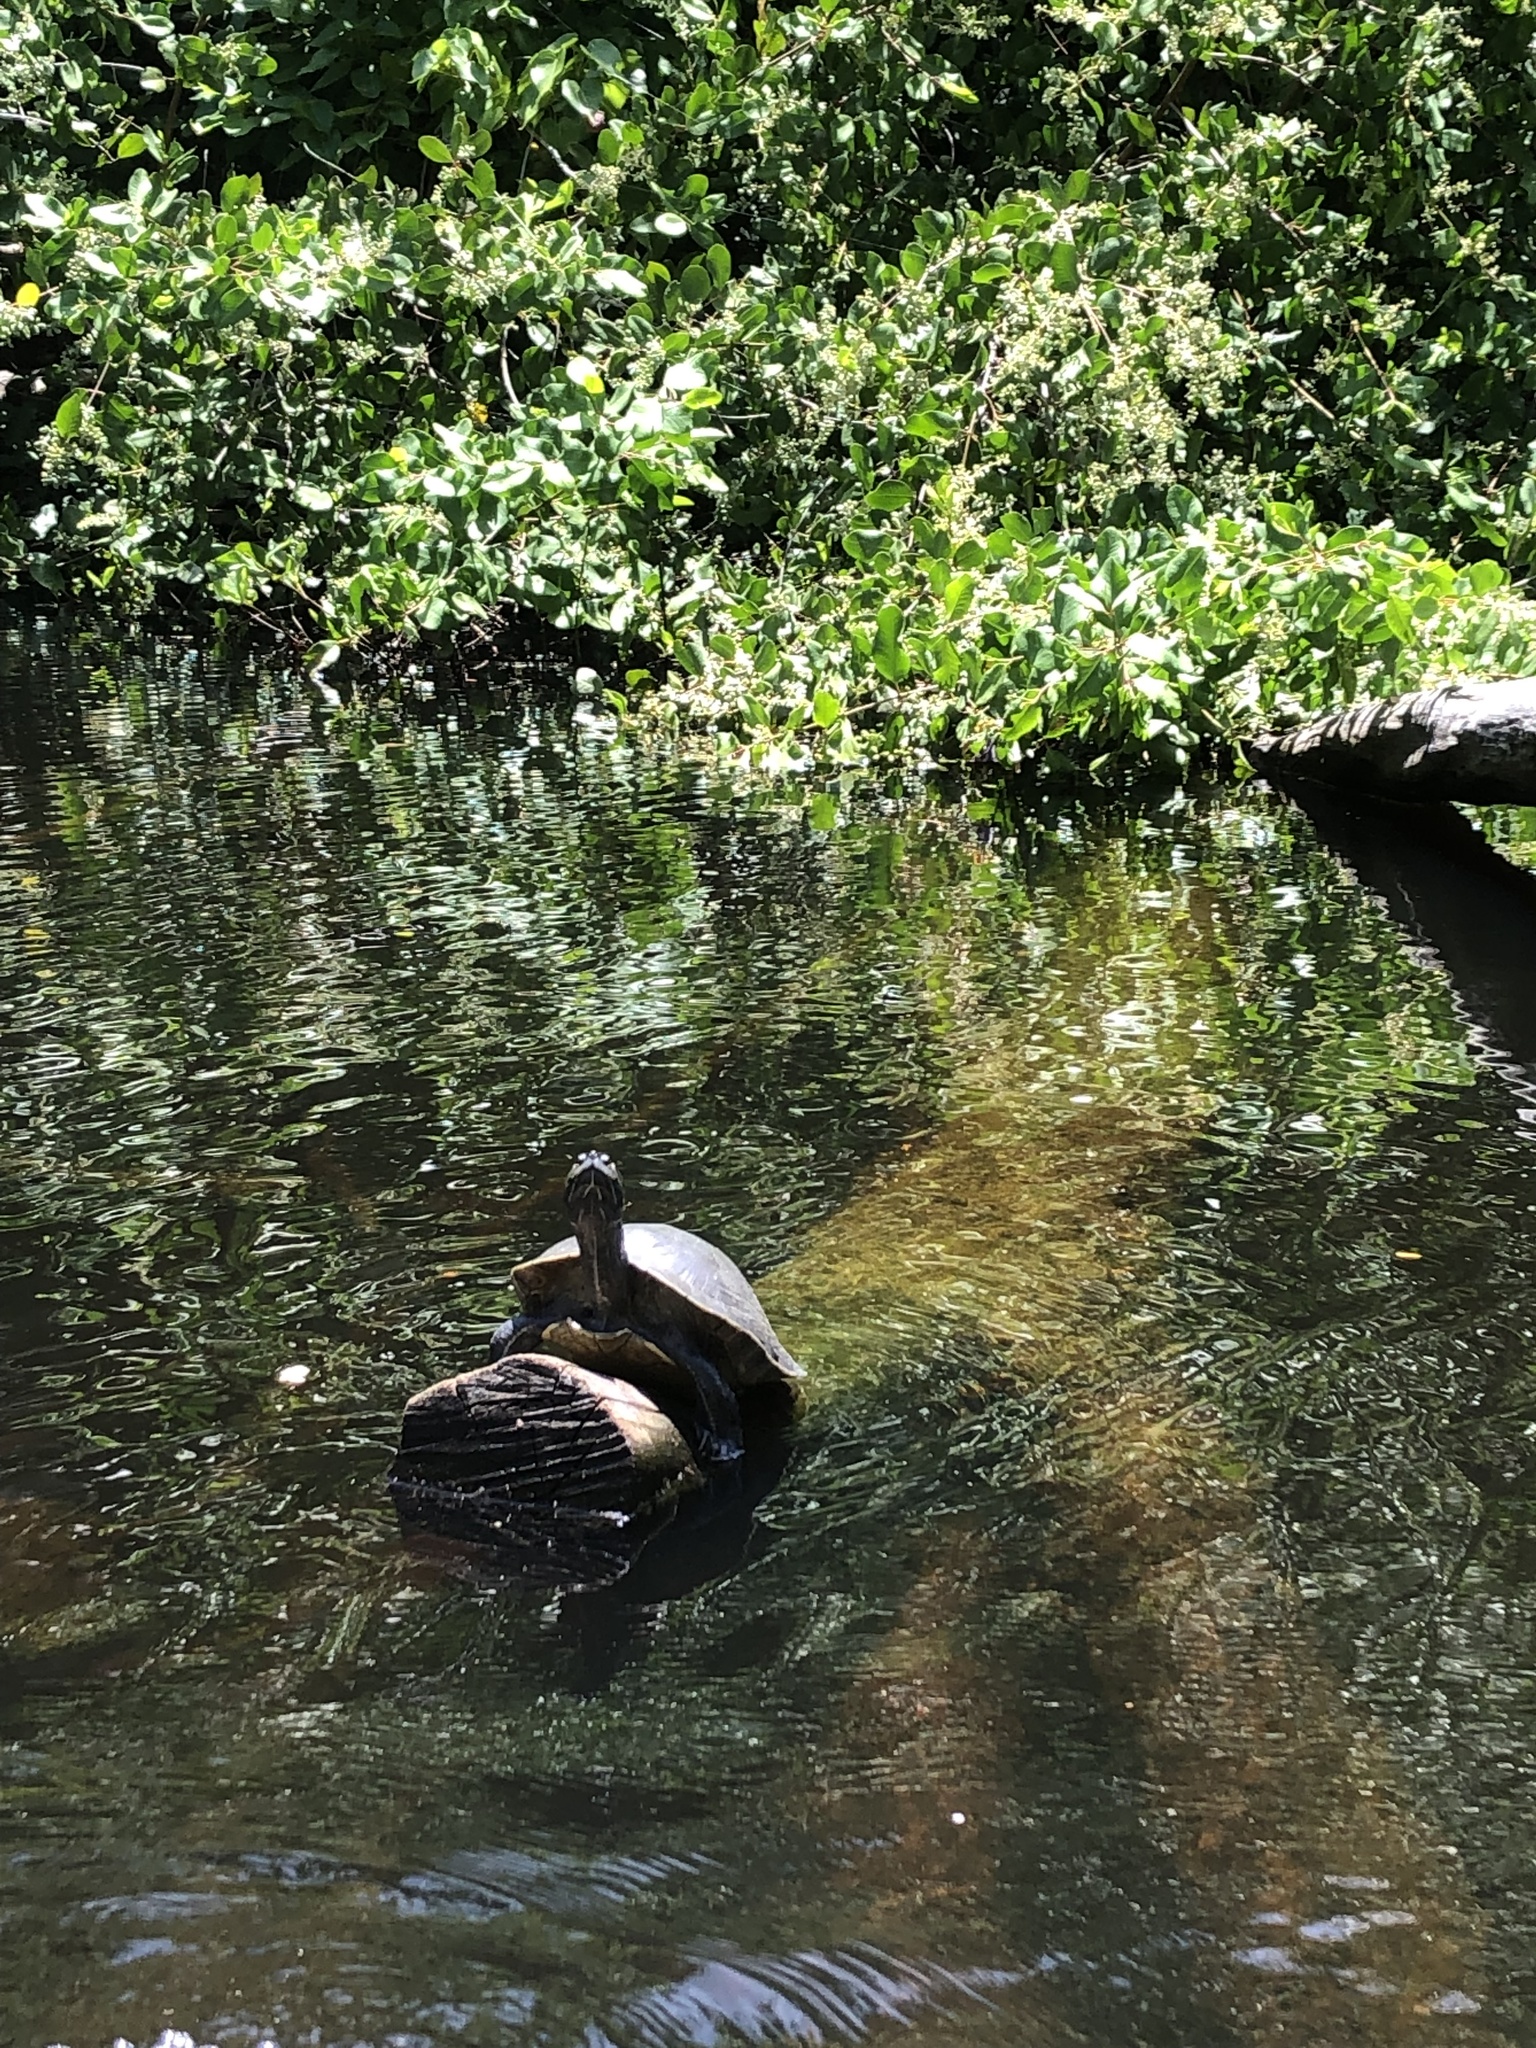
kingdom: Animalia
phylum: Chordata
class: Testudines
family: Emydidae
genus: Trachemys
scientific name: Trachemys stejnegeri
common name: Puerto rican slider
